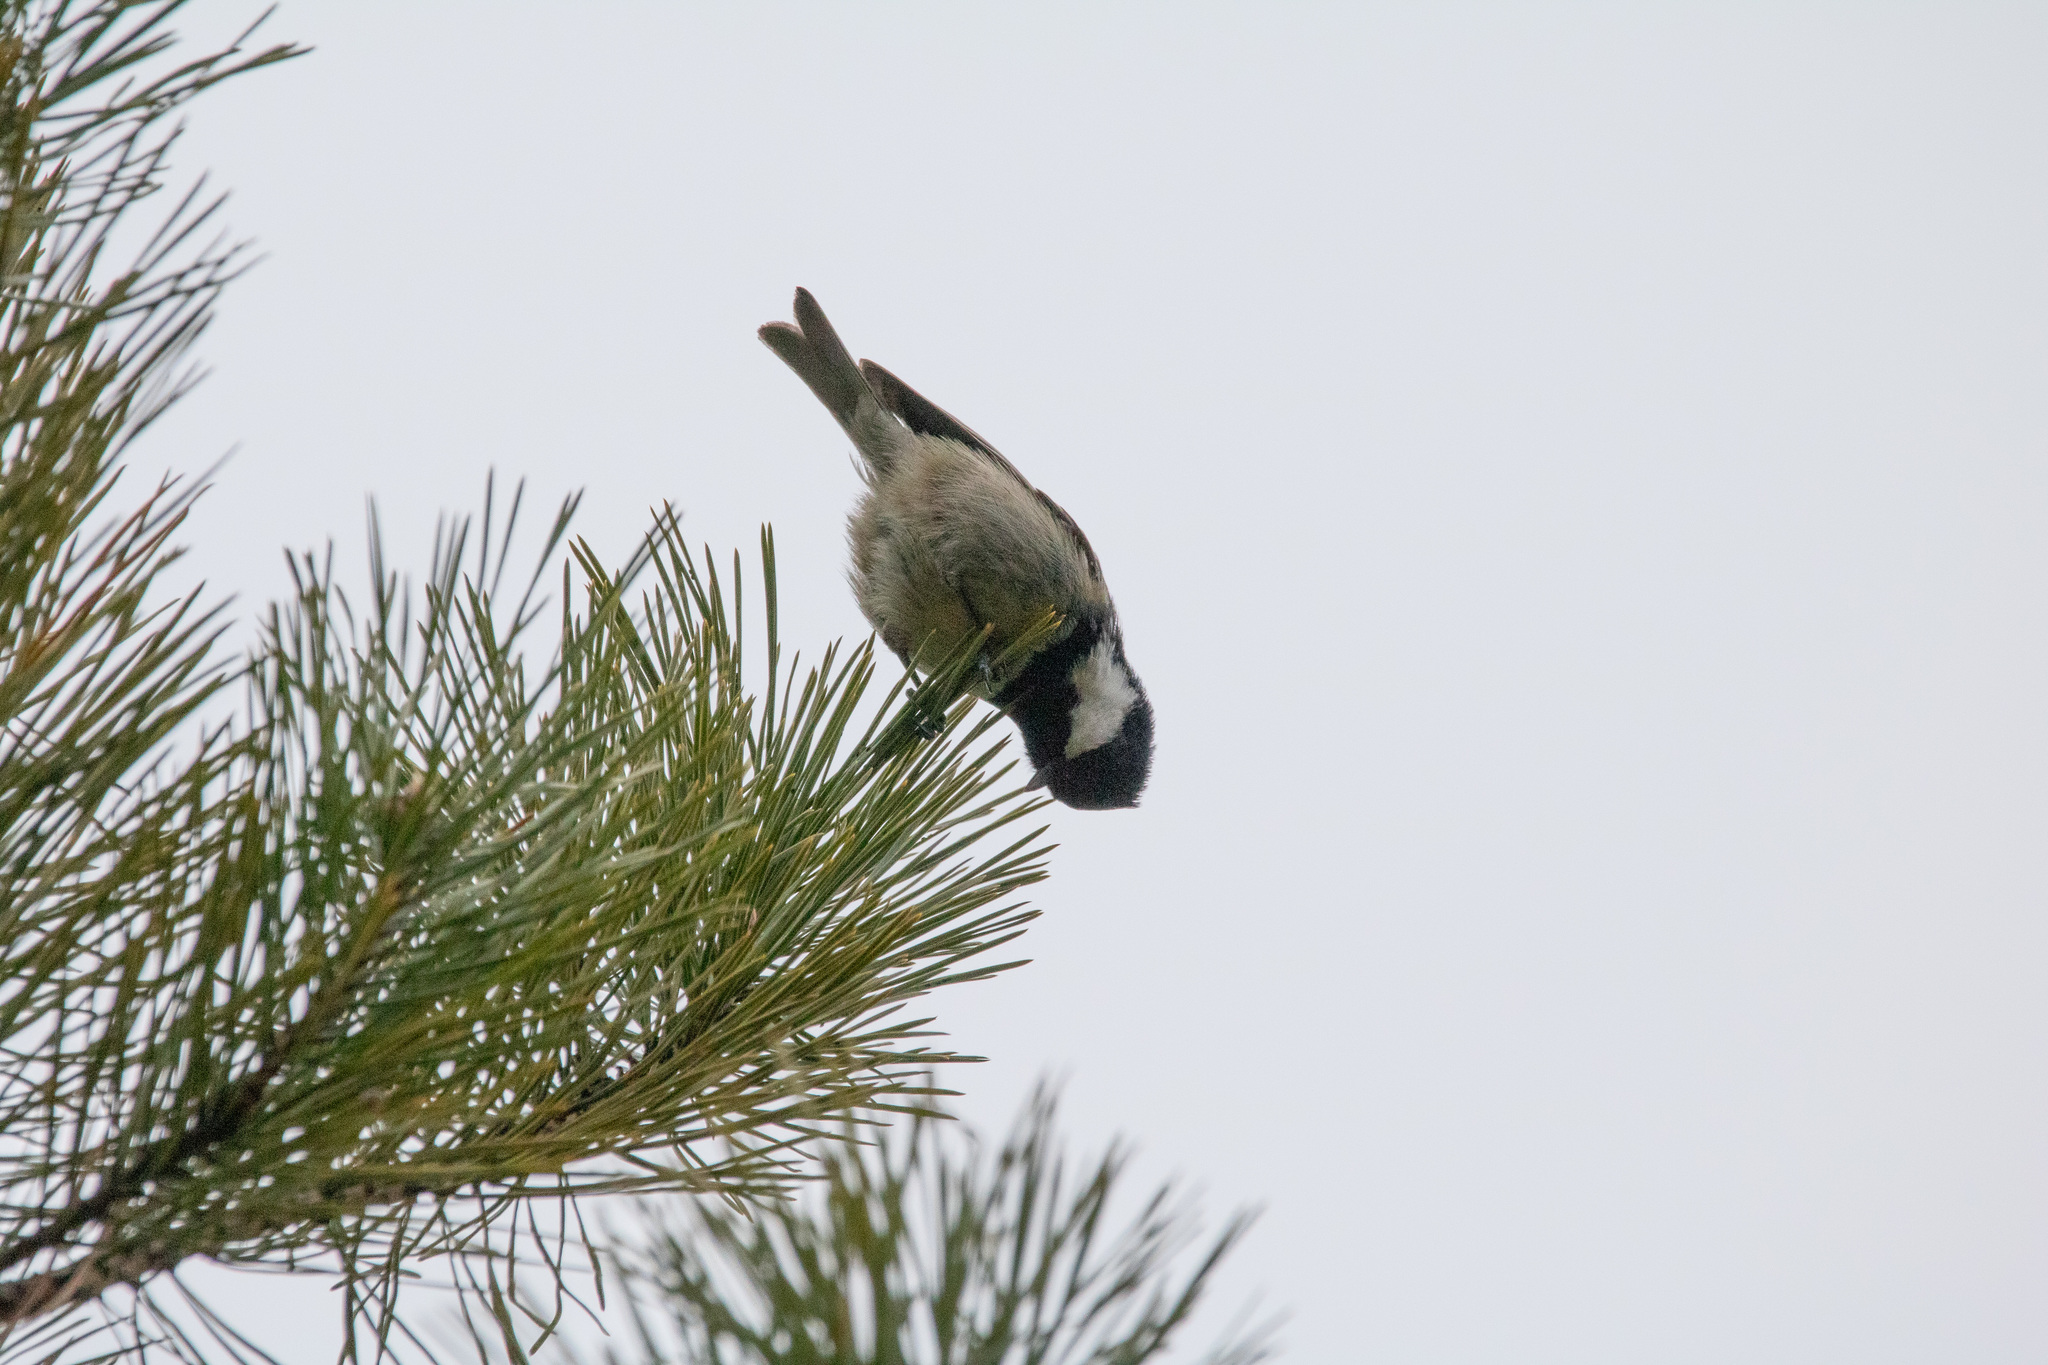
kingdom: Animalia
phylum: Chordata
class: Aves
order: Passeriformes
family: Paridae
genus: Periparus
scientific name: Periparus ater
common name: Coal tit
